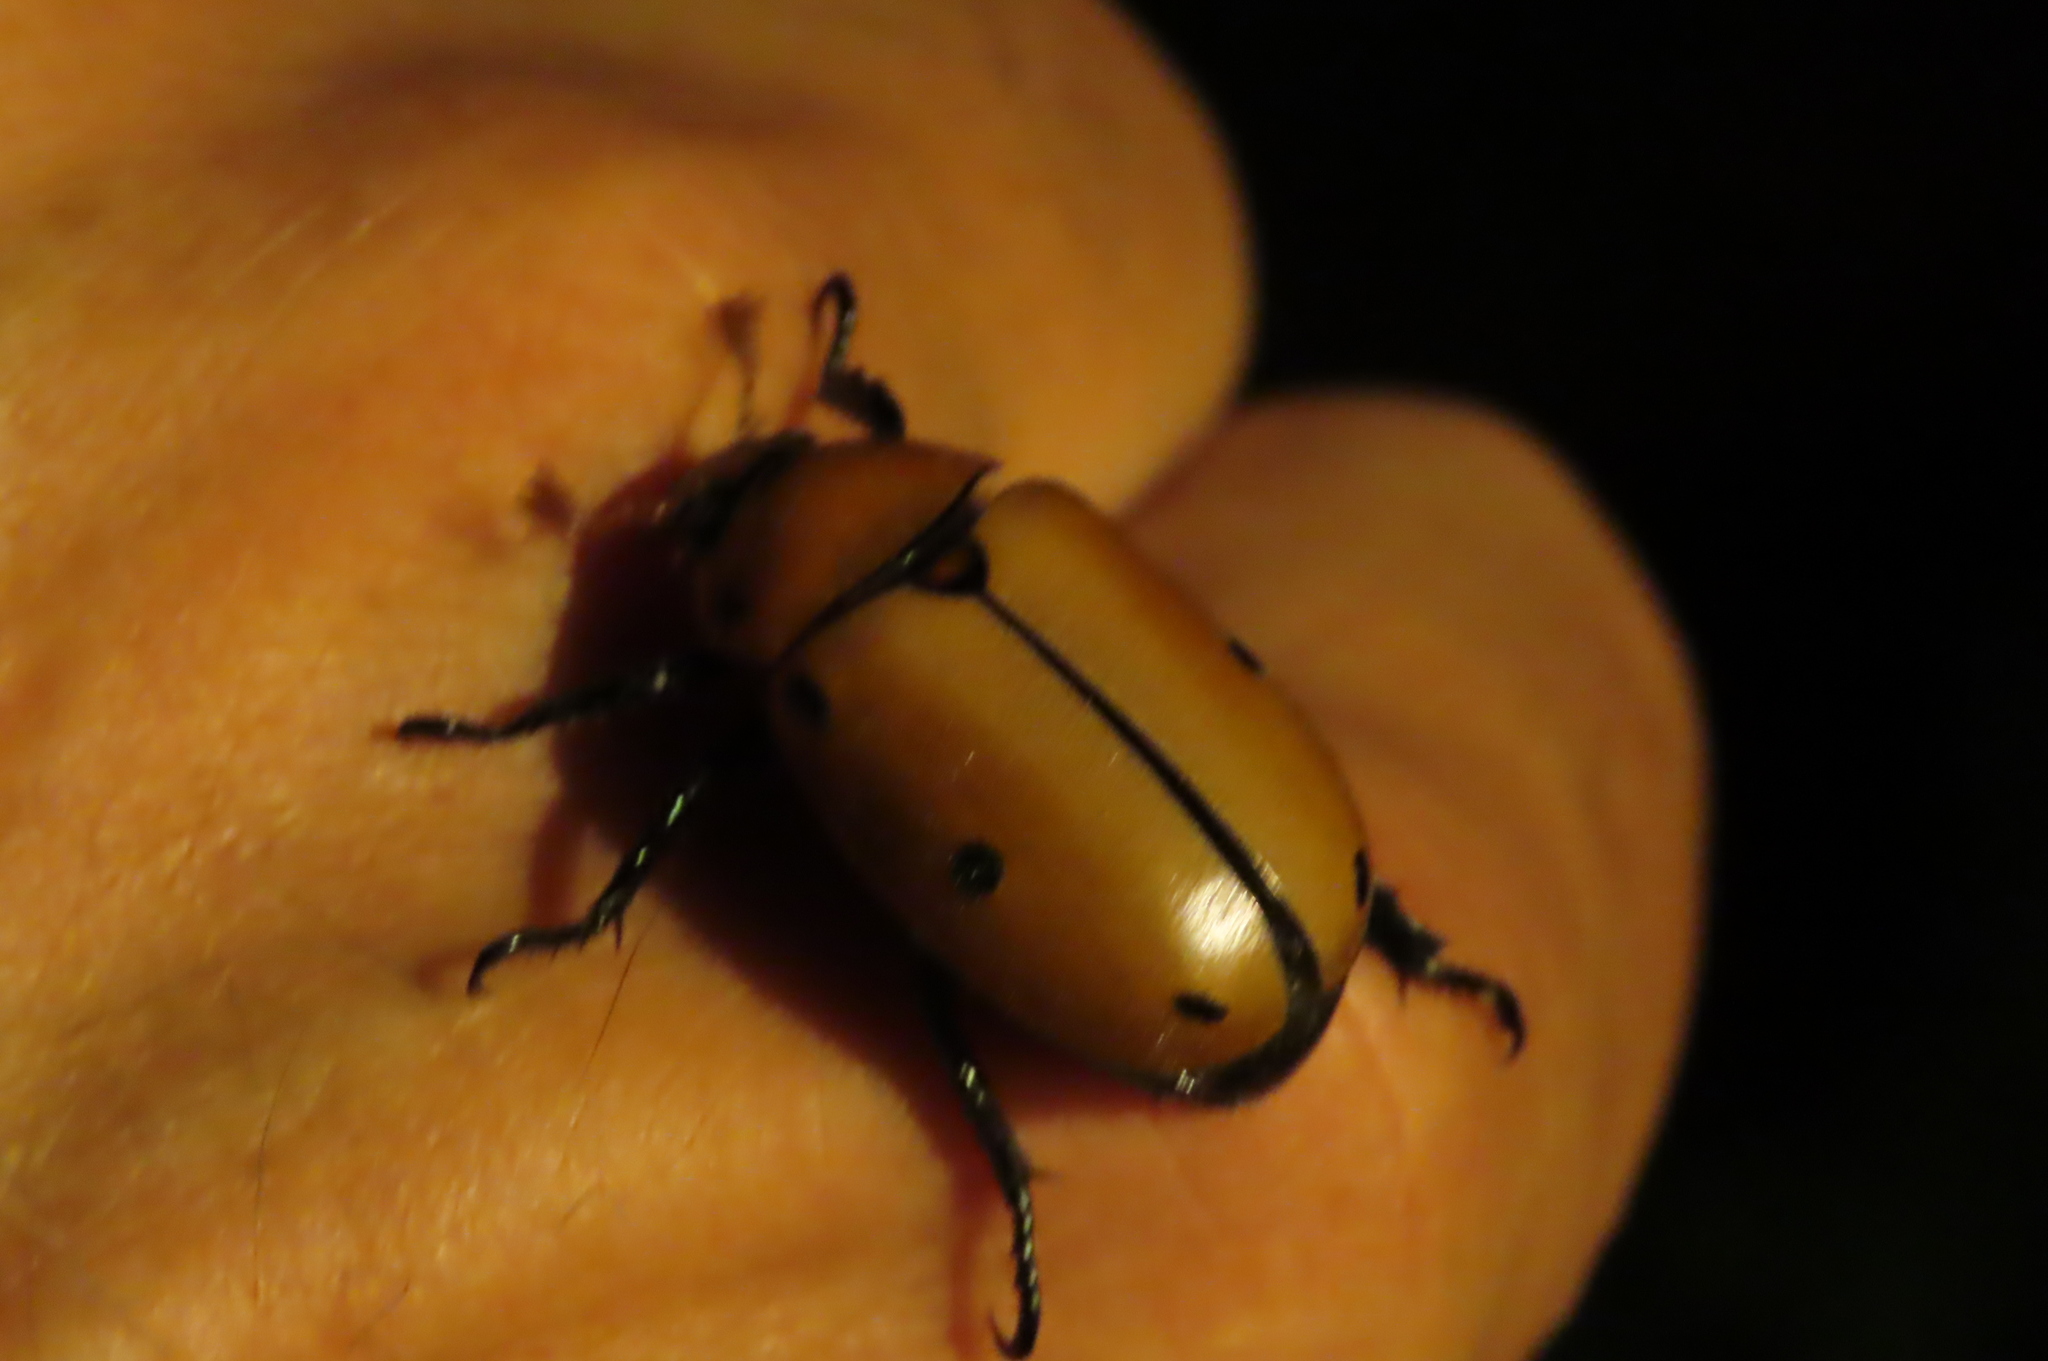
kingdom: Animalia
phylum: Arthropoda
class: Insecta
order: Coleoptera
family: Scarabaeidae
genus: Pelidnota
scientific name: Pelidnota punctata
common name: Grapevine beetle
